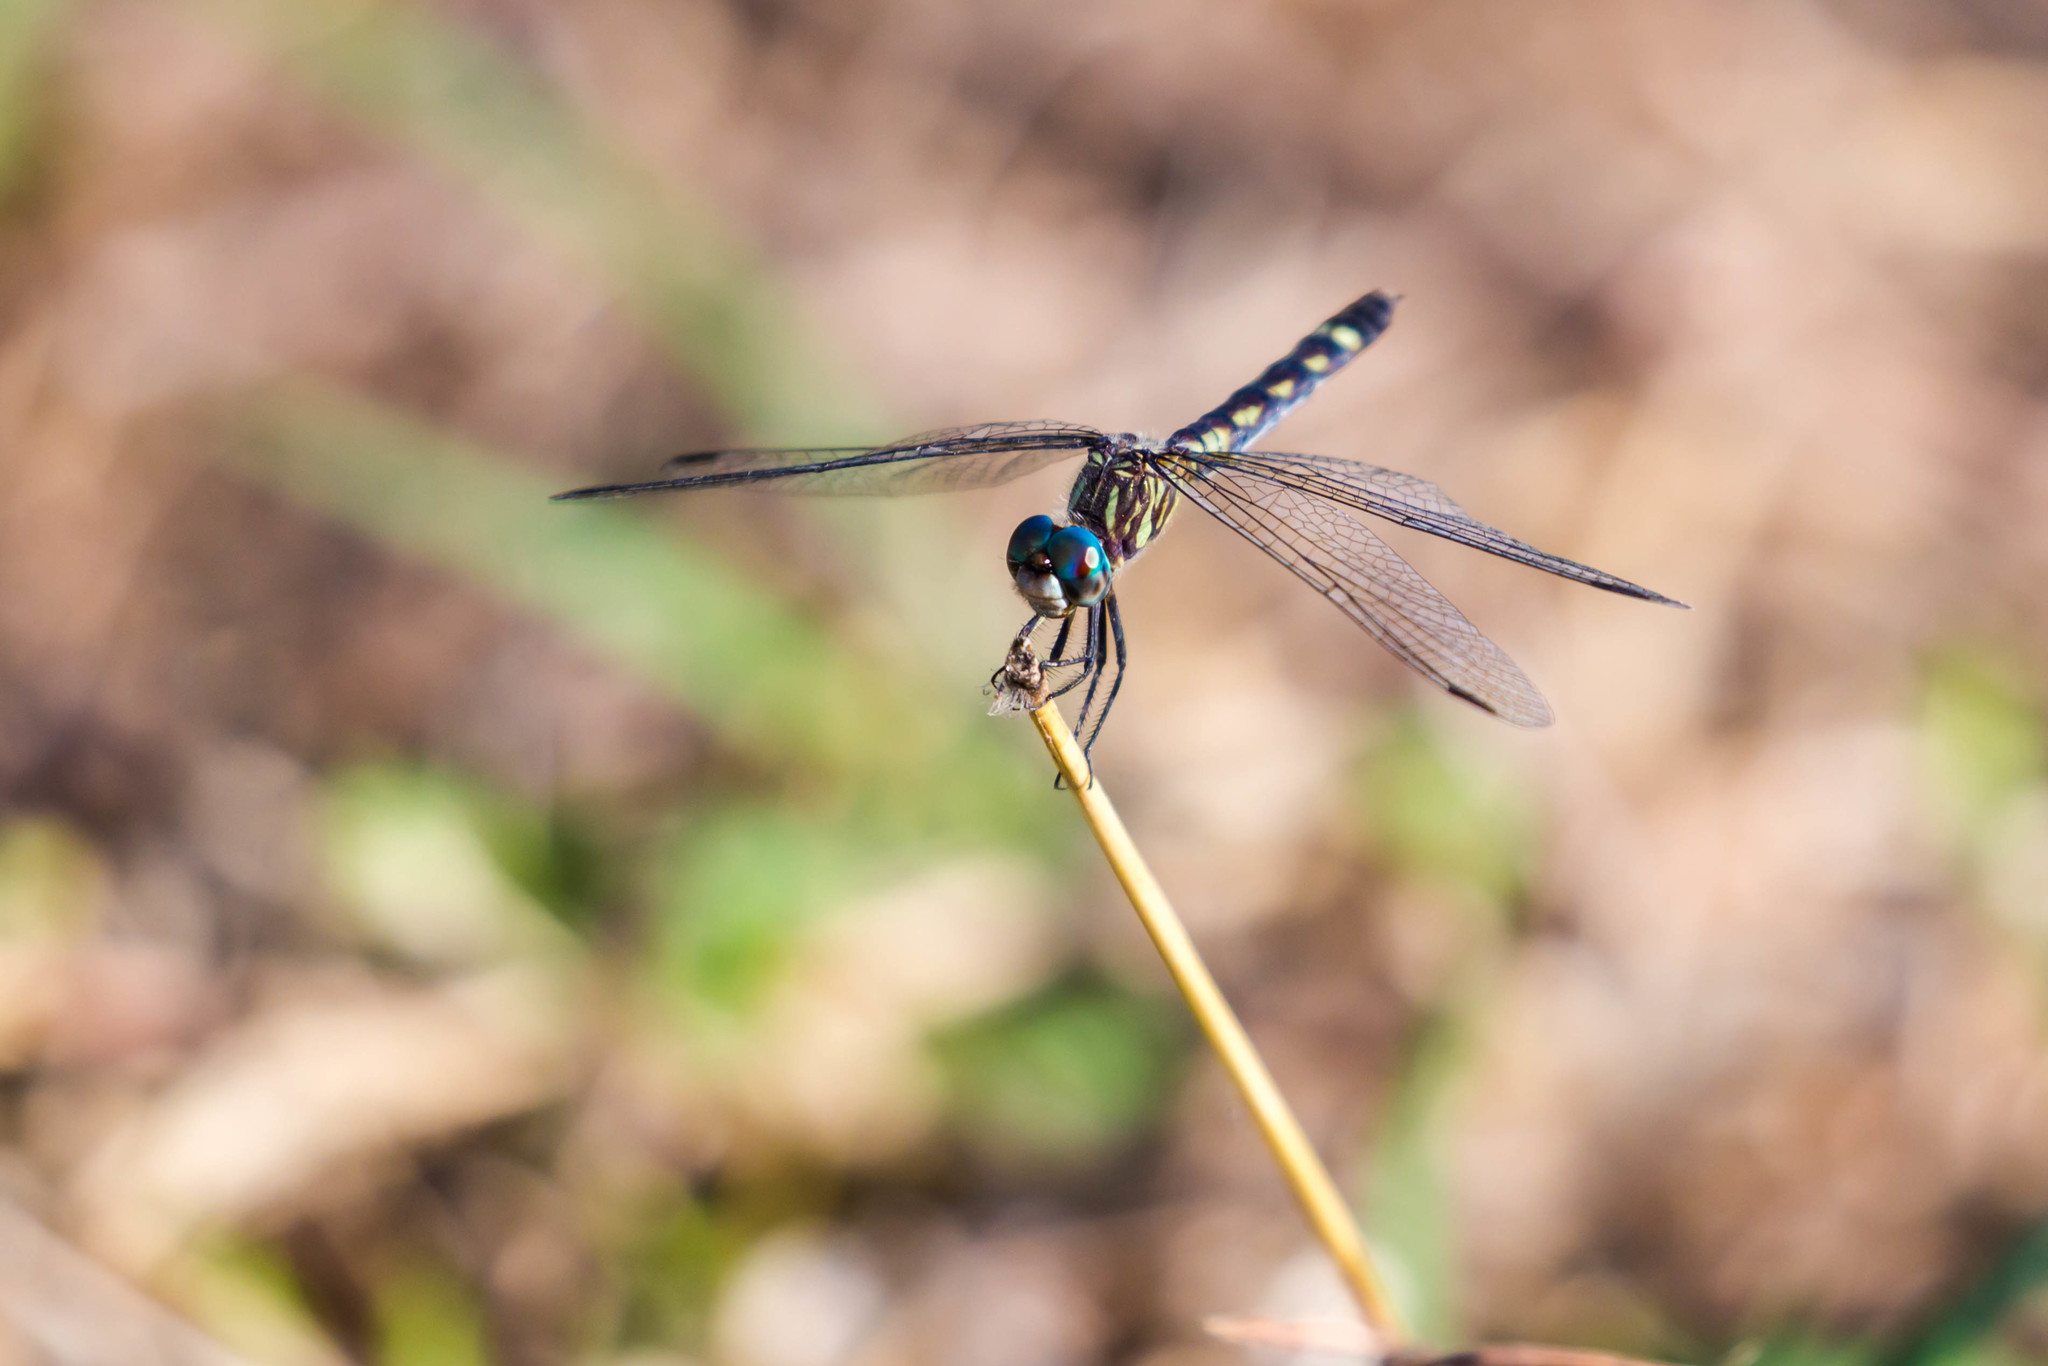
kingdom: Animalia
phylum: Arthropoda
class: Insecta
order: Odonata
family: Libellulidae
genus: Micrathyria
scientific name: Micrathyria hagenii
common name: Thornbush dasher
